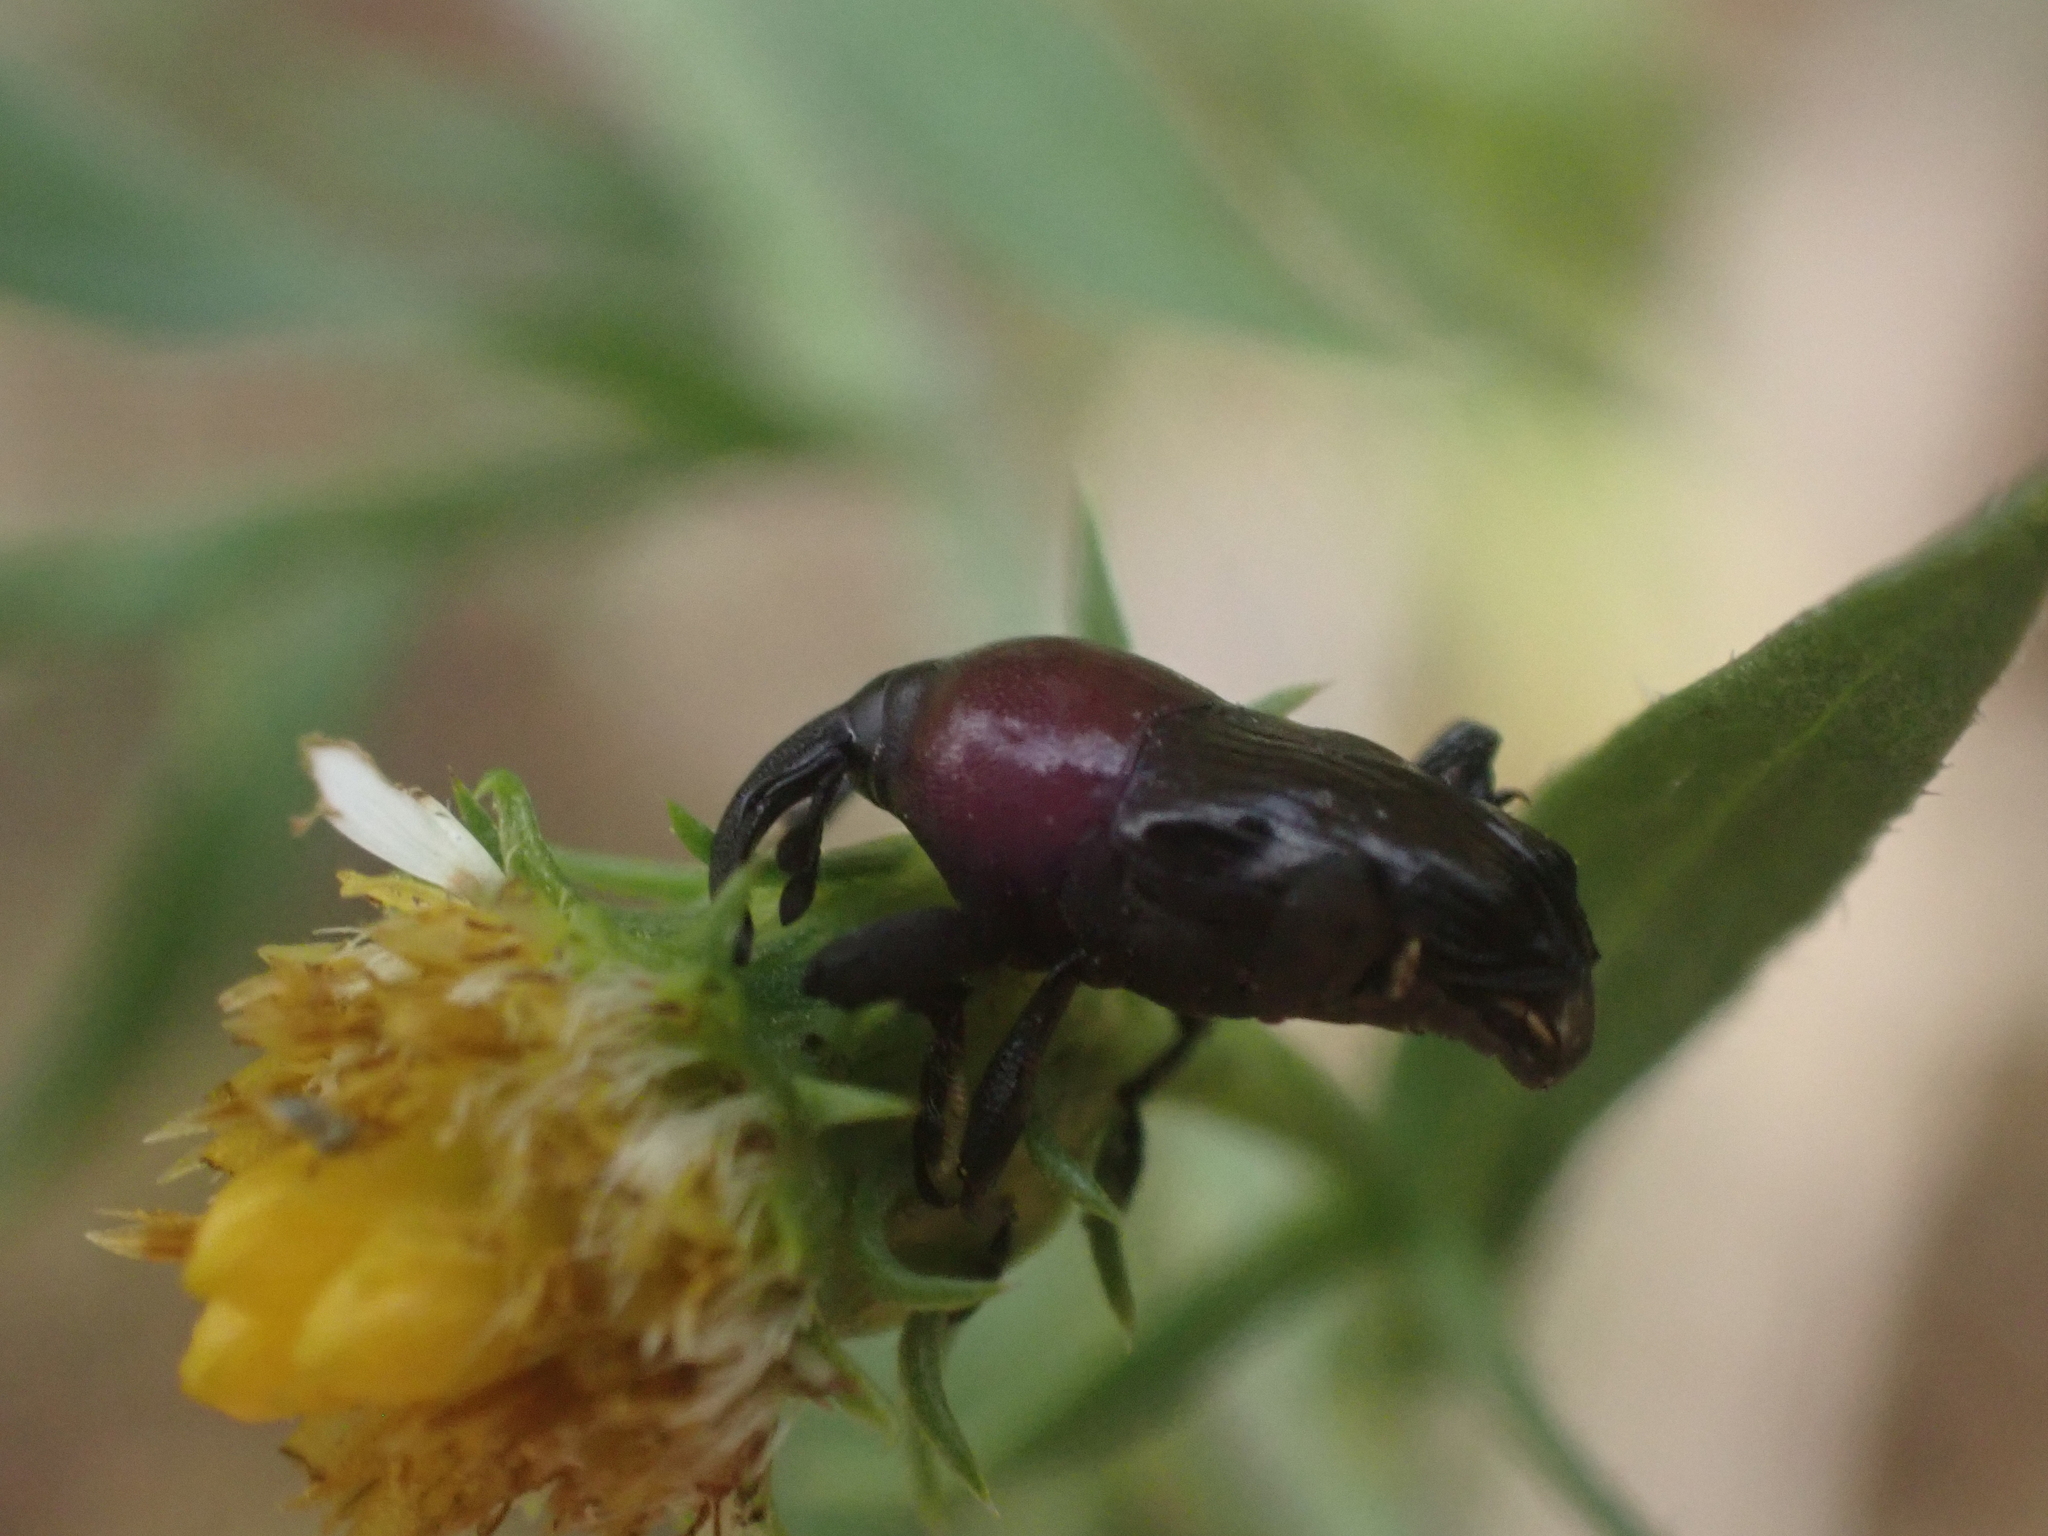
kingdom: Animalia
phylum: Arthropoda
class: Insecta
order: Coleoptera
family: Curculionidae
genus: Madarellus
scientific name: Madarellus undulatus
